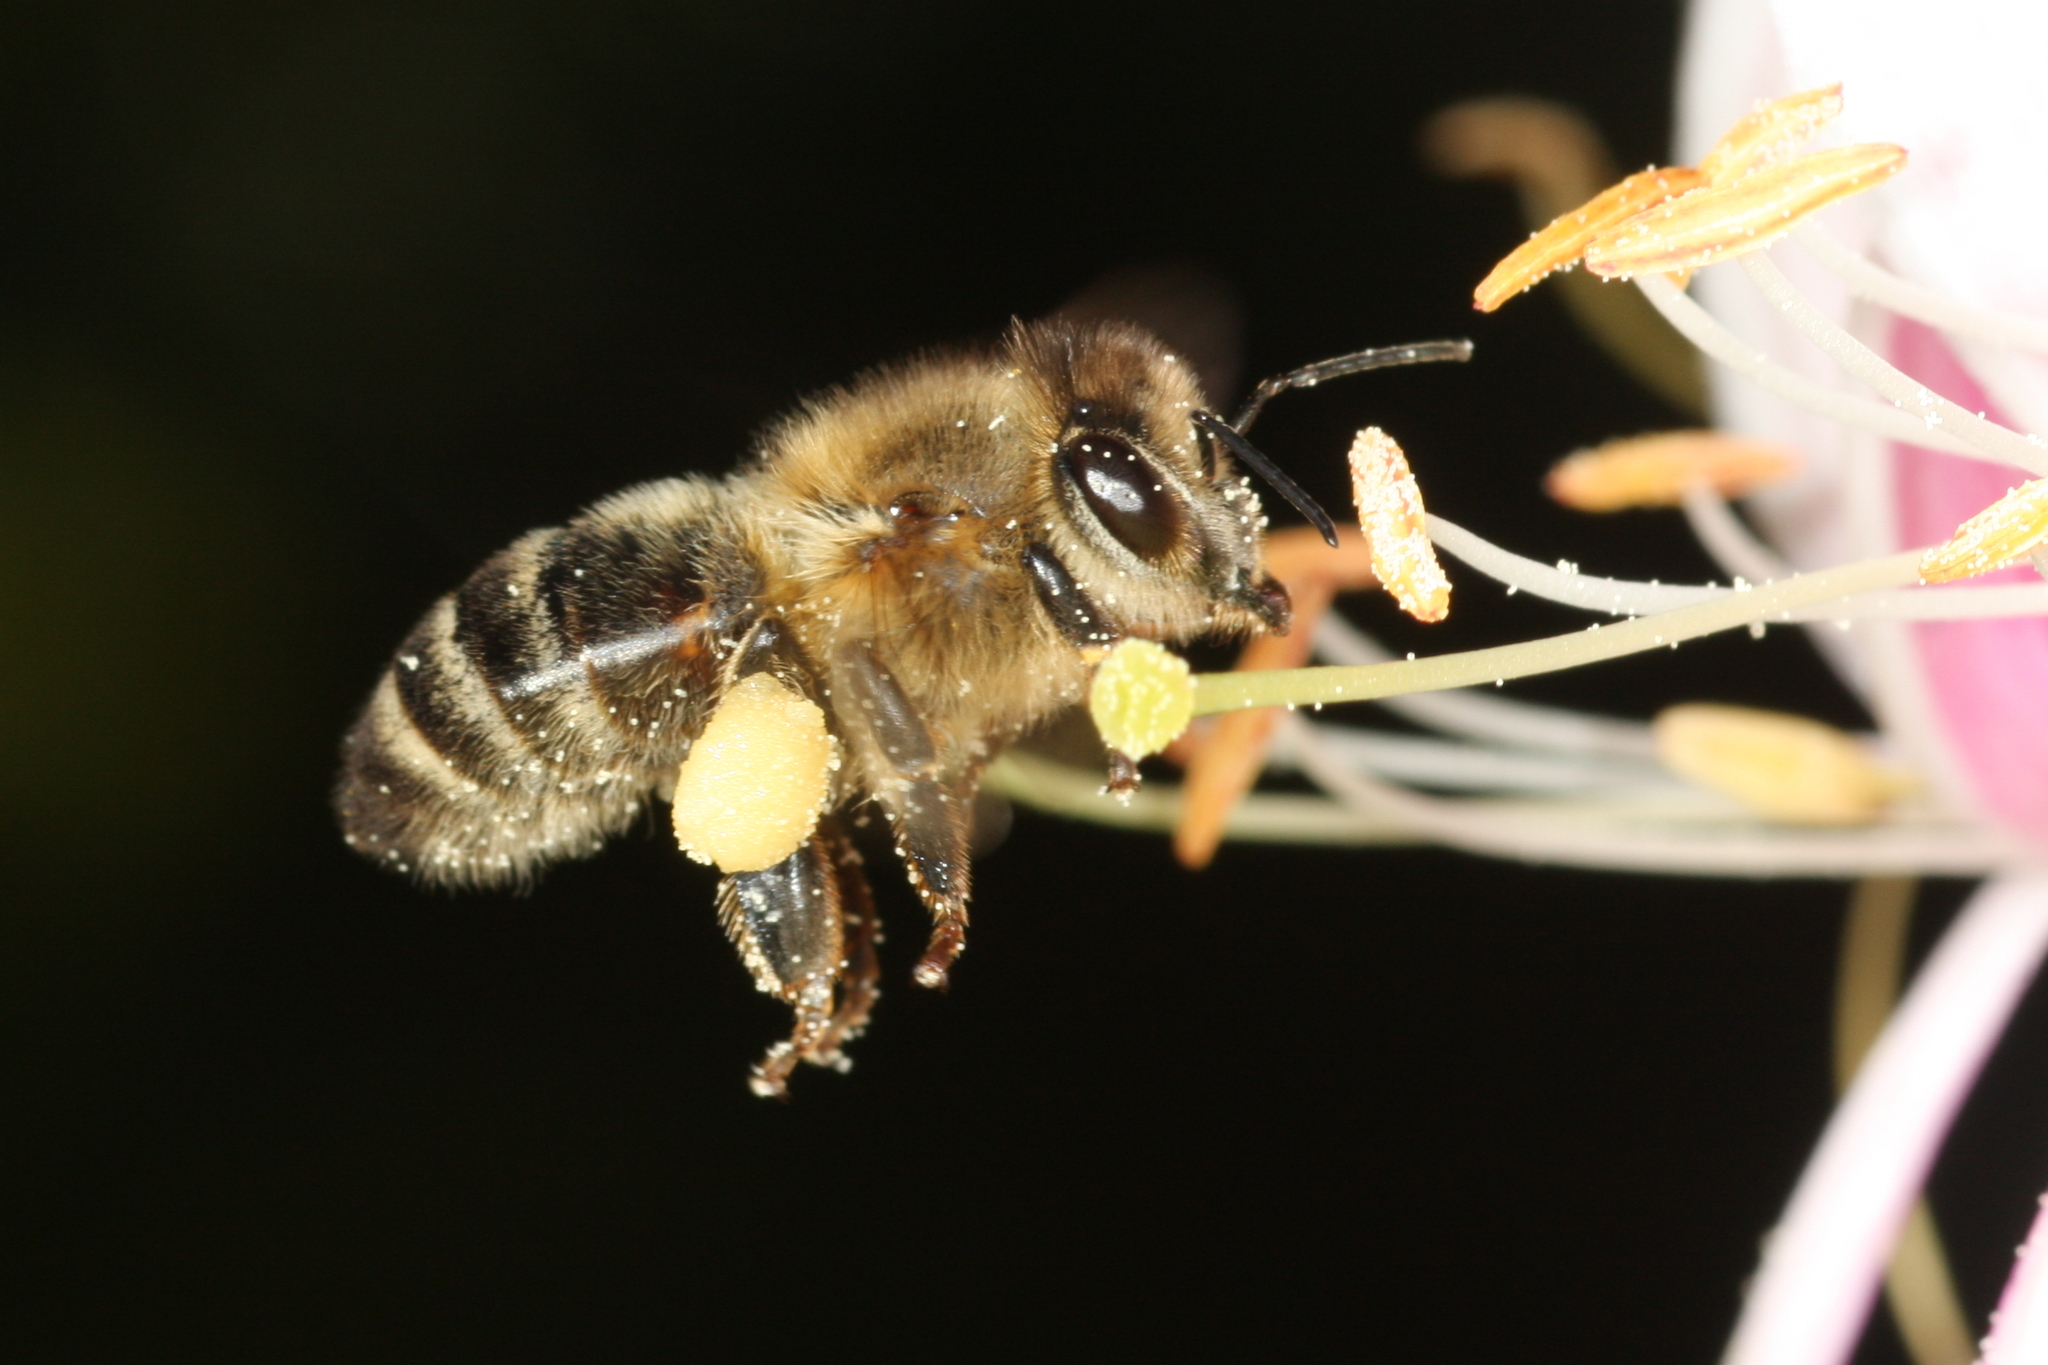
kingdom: Animalia
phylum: Arthropoda
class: Insecta
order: Hymenoptera
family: Apidae
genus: Apis
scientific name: Apis mellifera
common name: Honey bee
